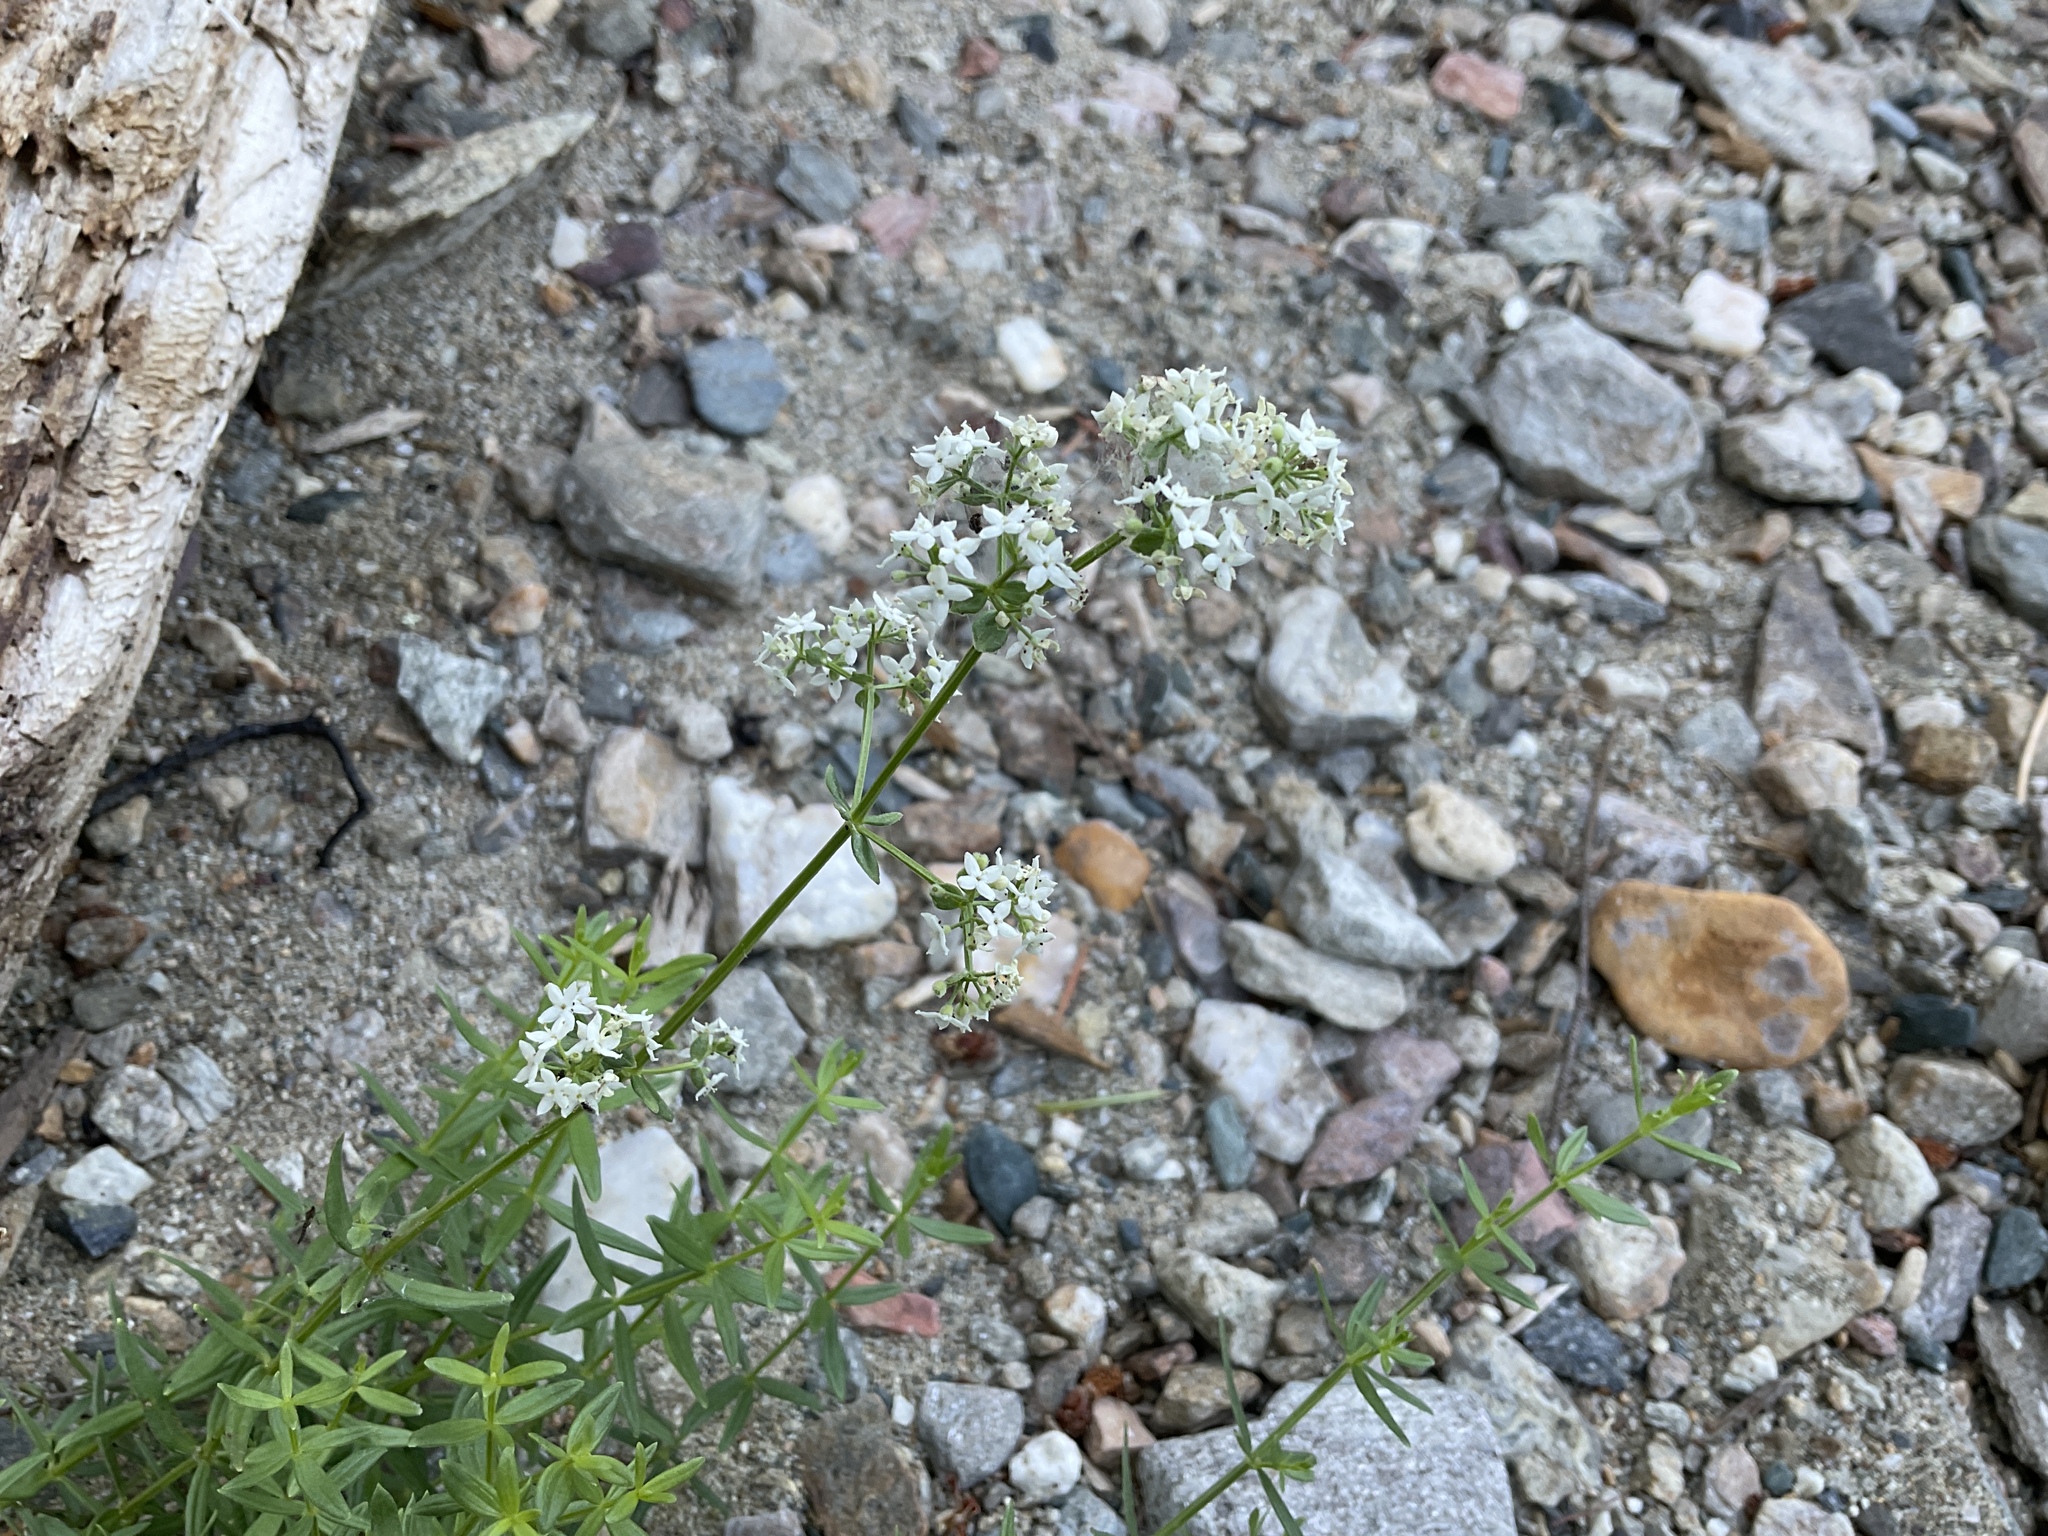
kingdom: Plantae
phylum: Tracheophyta
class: Magnoliopsida
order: Gentianales
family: Rubiaceae
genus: Galium
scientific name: Galium boreale
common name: Northern bedstraw
